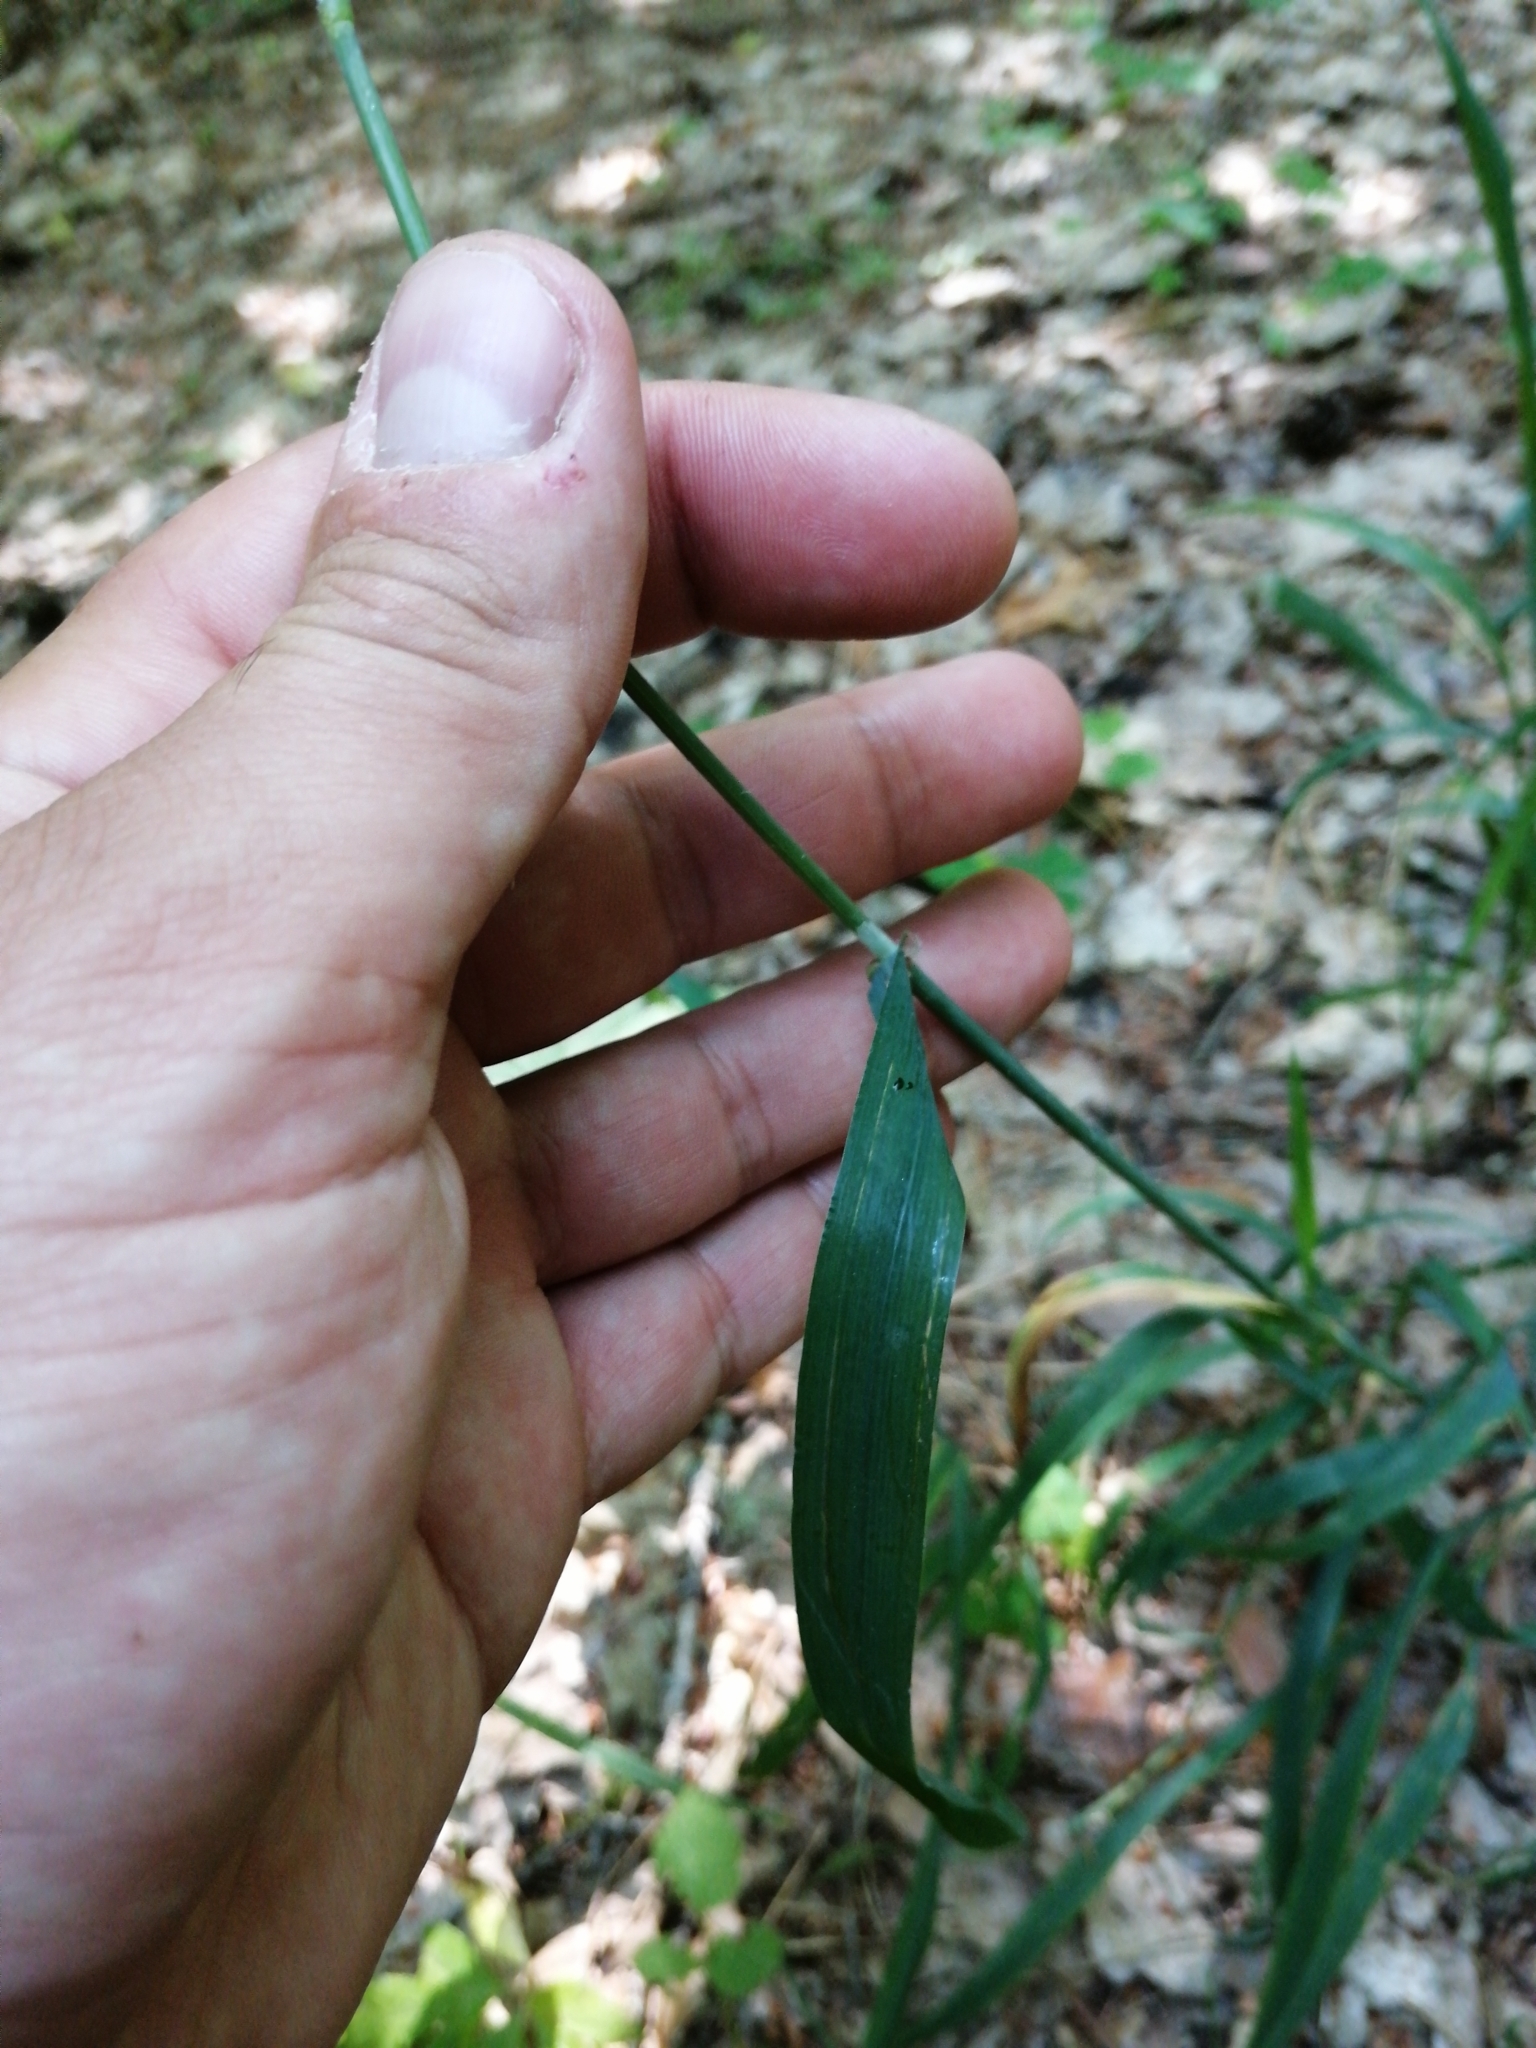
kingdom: Plantae
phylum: Tracheophyta
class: Liliopsida
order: Poales
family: Poaceae
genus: Milium
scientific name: Milium effusum
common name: Wood millet
